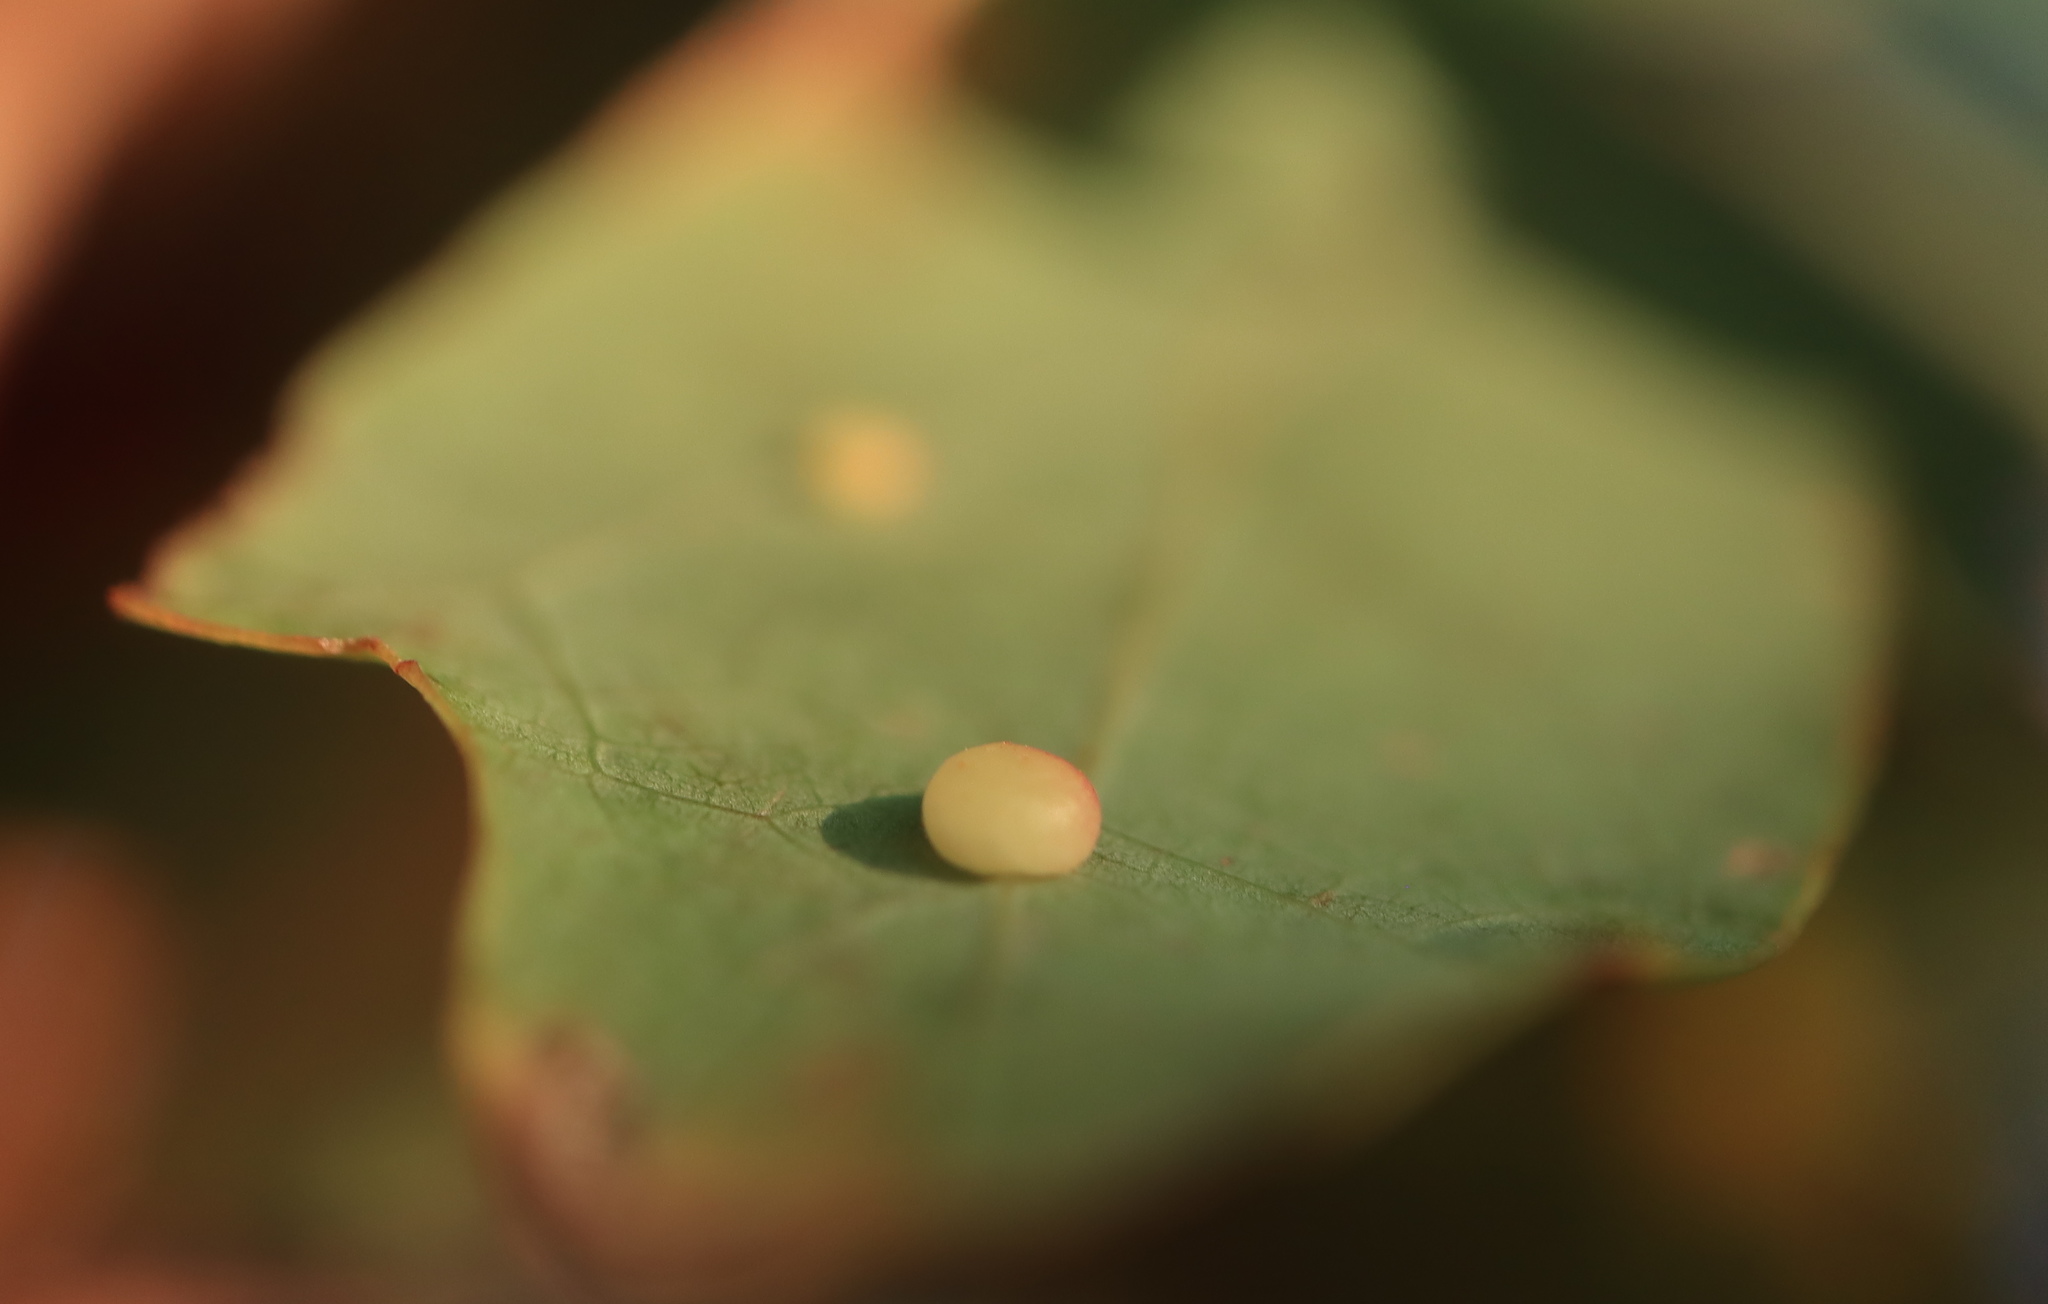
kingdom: Animalia
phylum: Arthropoda
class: Insecta
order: Hymenoptera
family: Cynipidae
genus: Phylloteras
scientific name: Phylloteras
